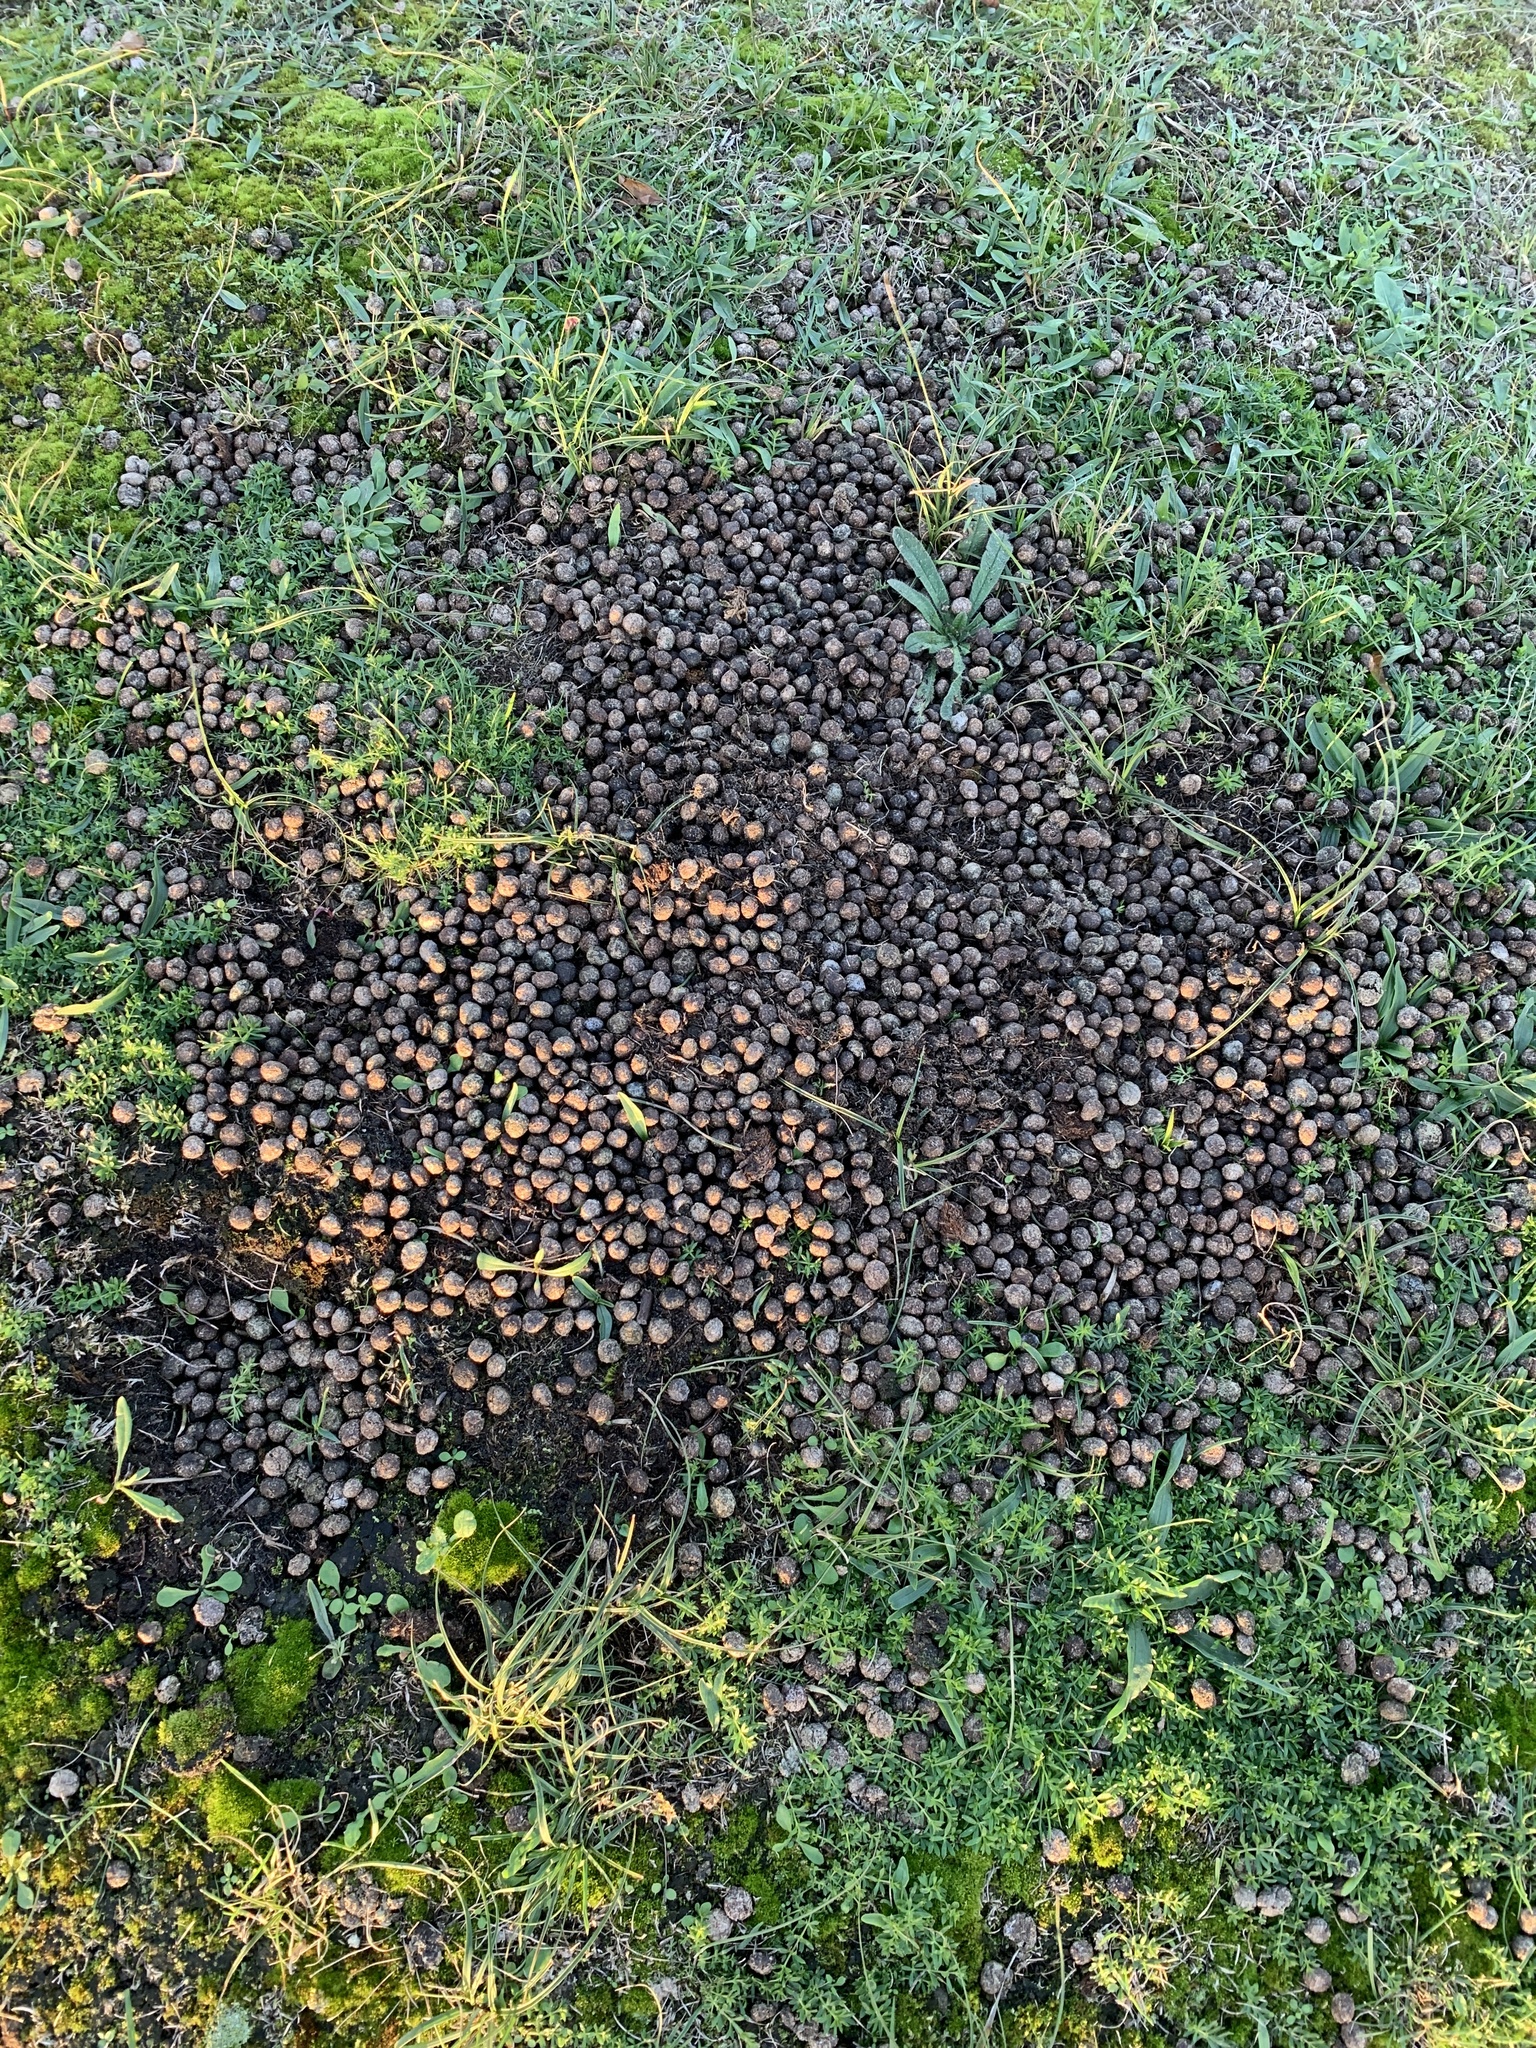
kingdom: Animalia
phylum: Chordata
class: Mammalia
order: Lagomorpha
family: Leporidae
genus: Oryctolagus
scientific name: Oryctolagus cuniculus
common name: European rabbit
